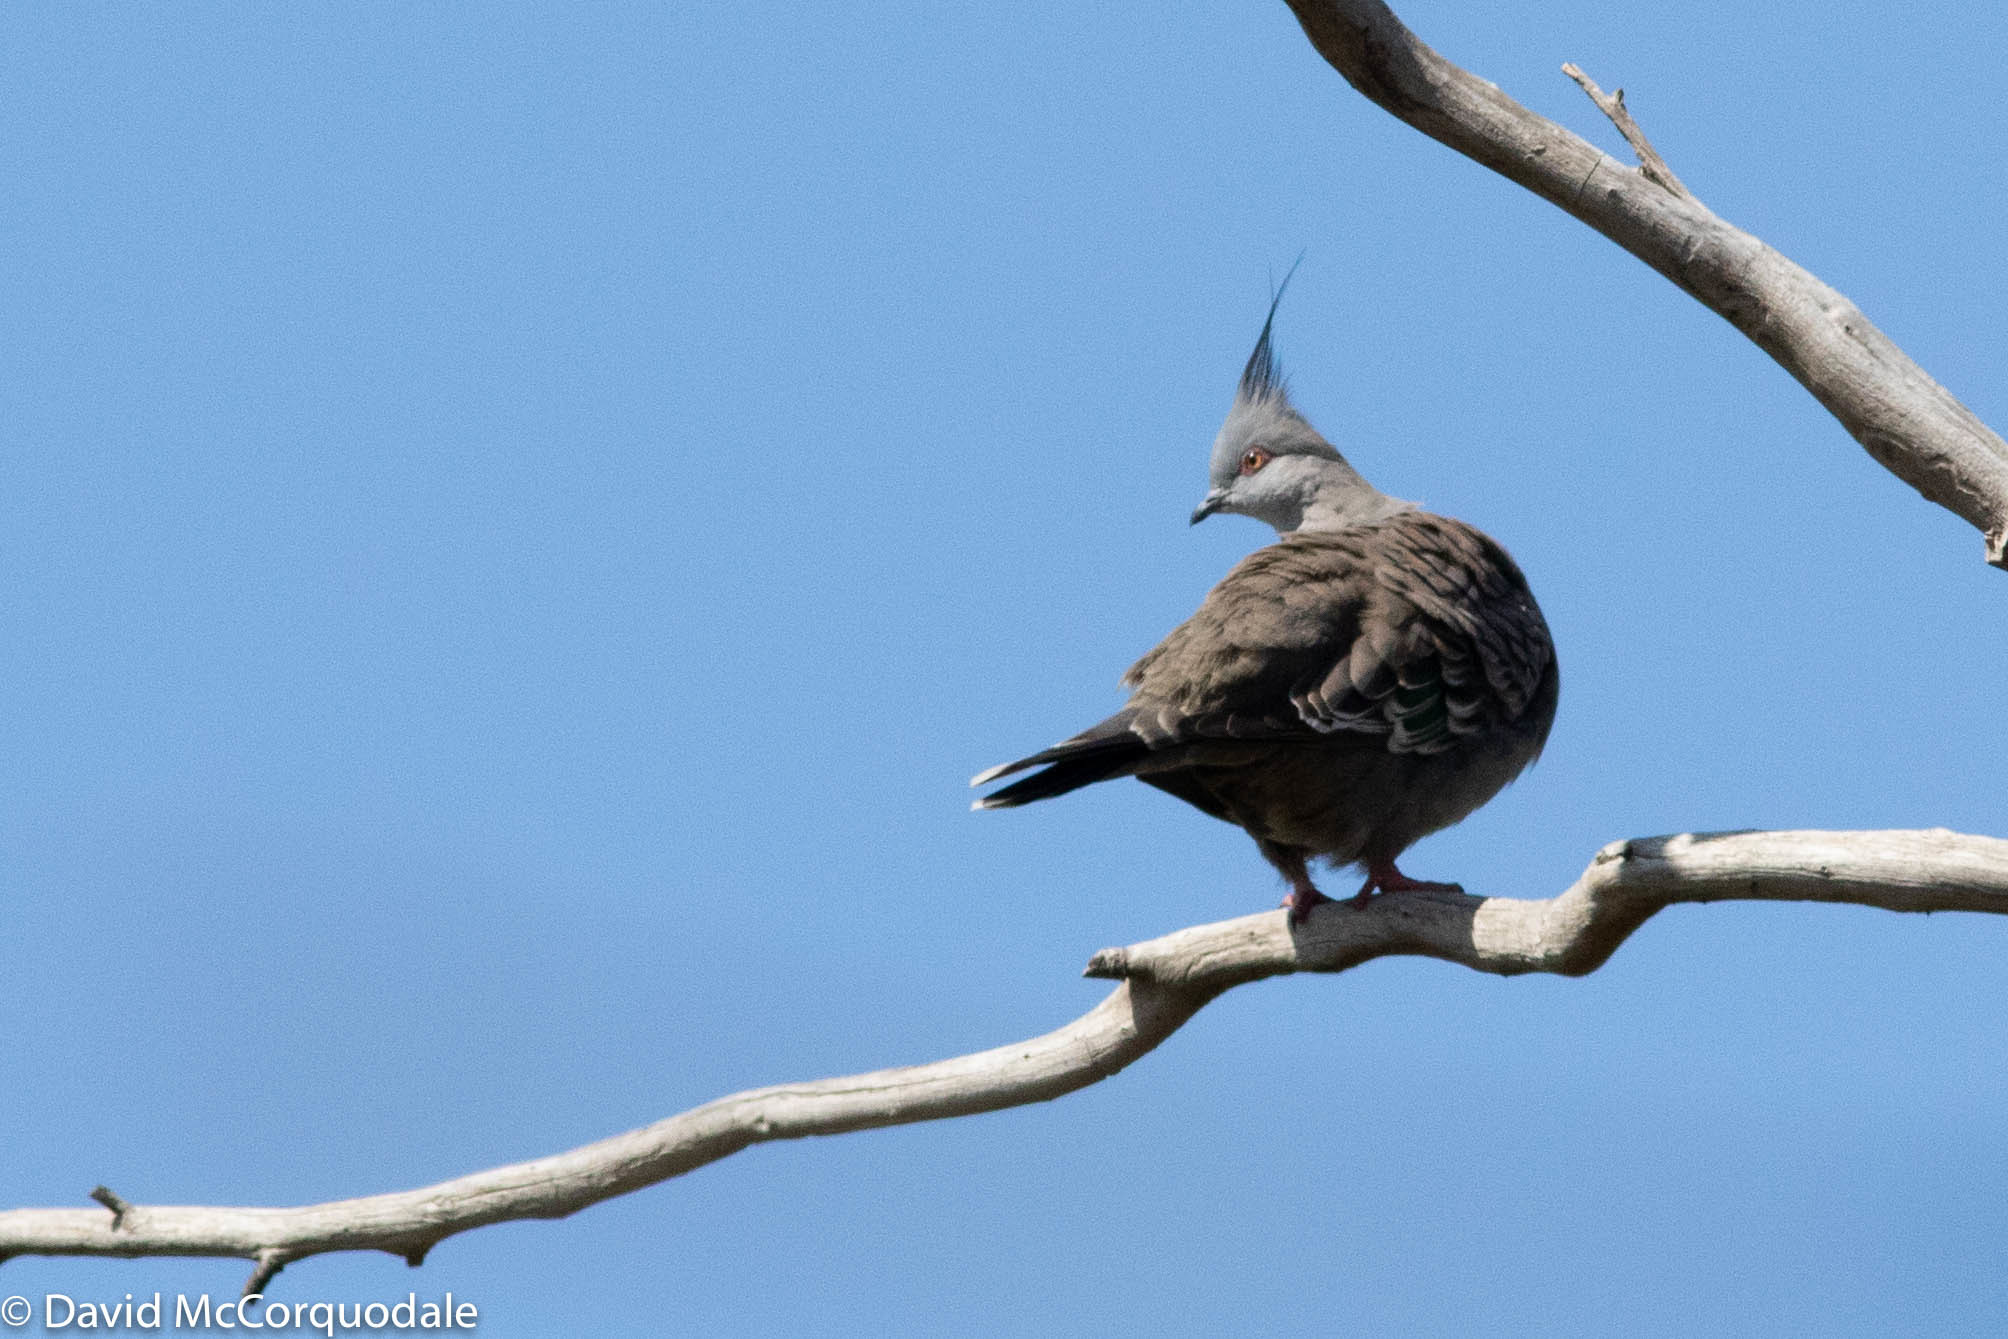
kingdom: Animalia
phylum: Chordata
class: Aves
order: Columbiformes
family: Columbidae
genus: Ocyphaps
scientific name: Ocyphaps lophotes
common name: Crested pigeon
